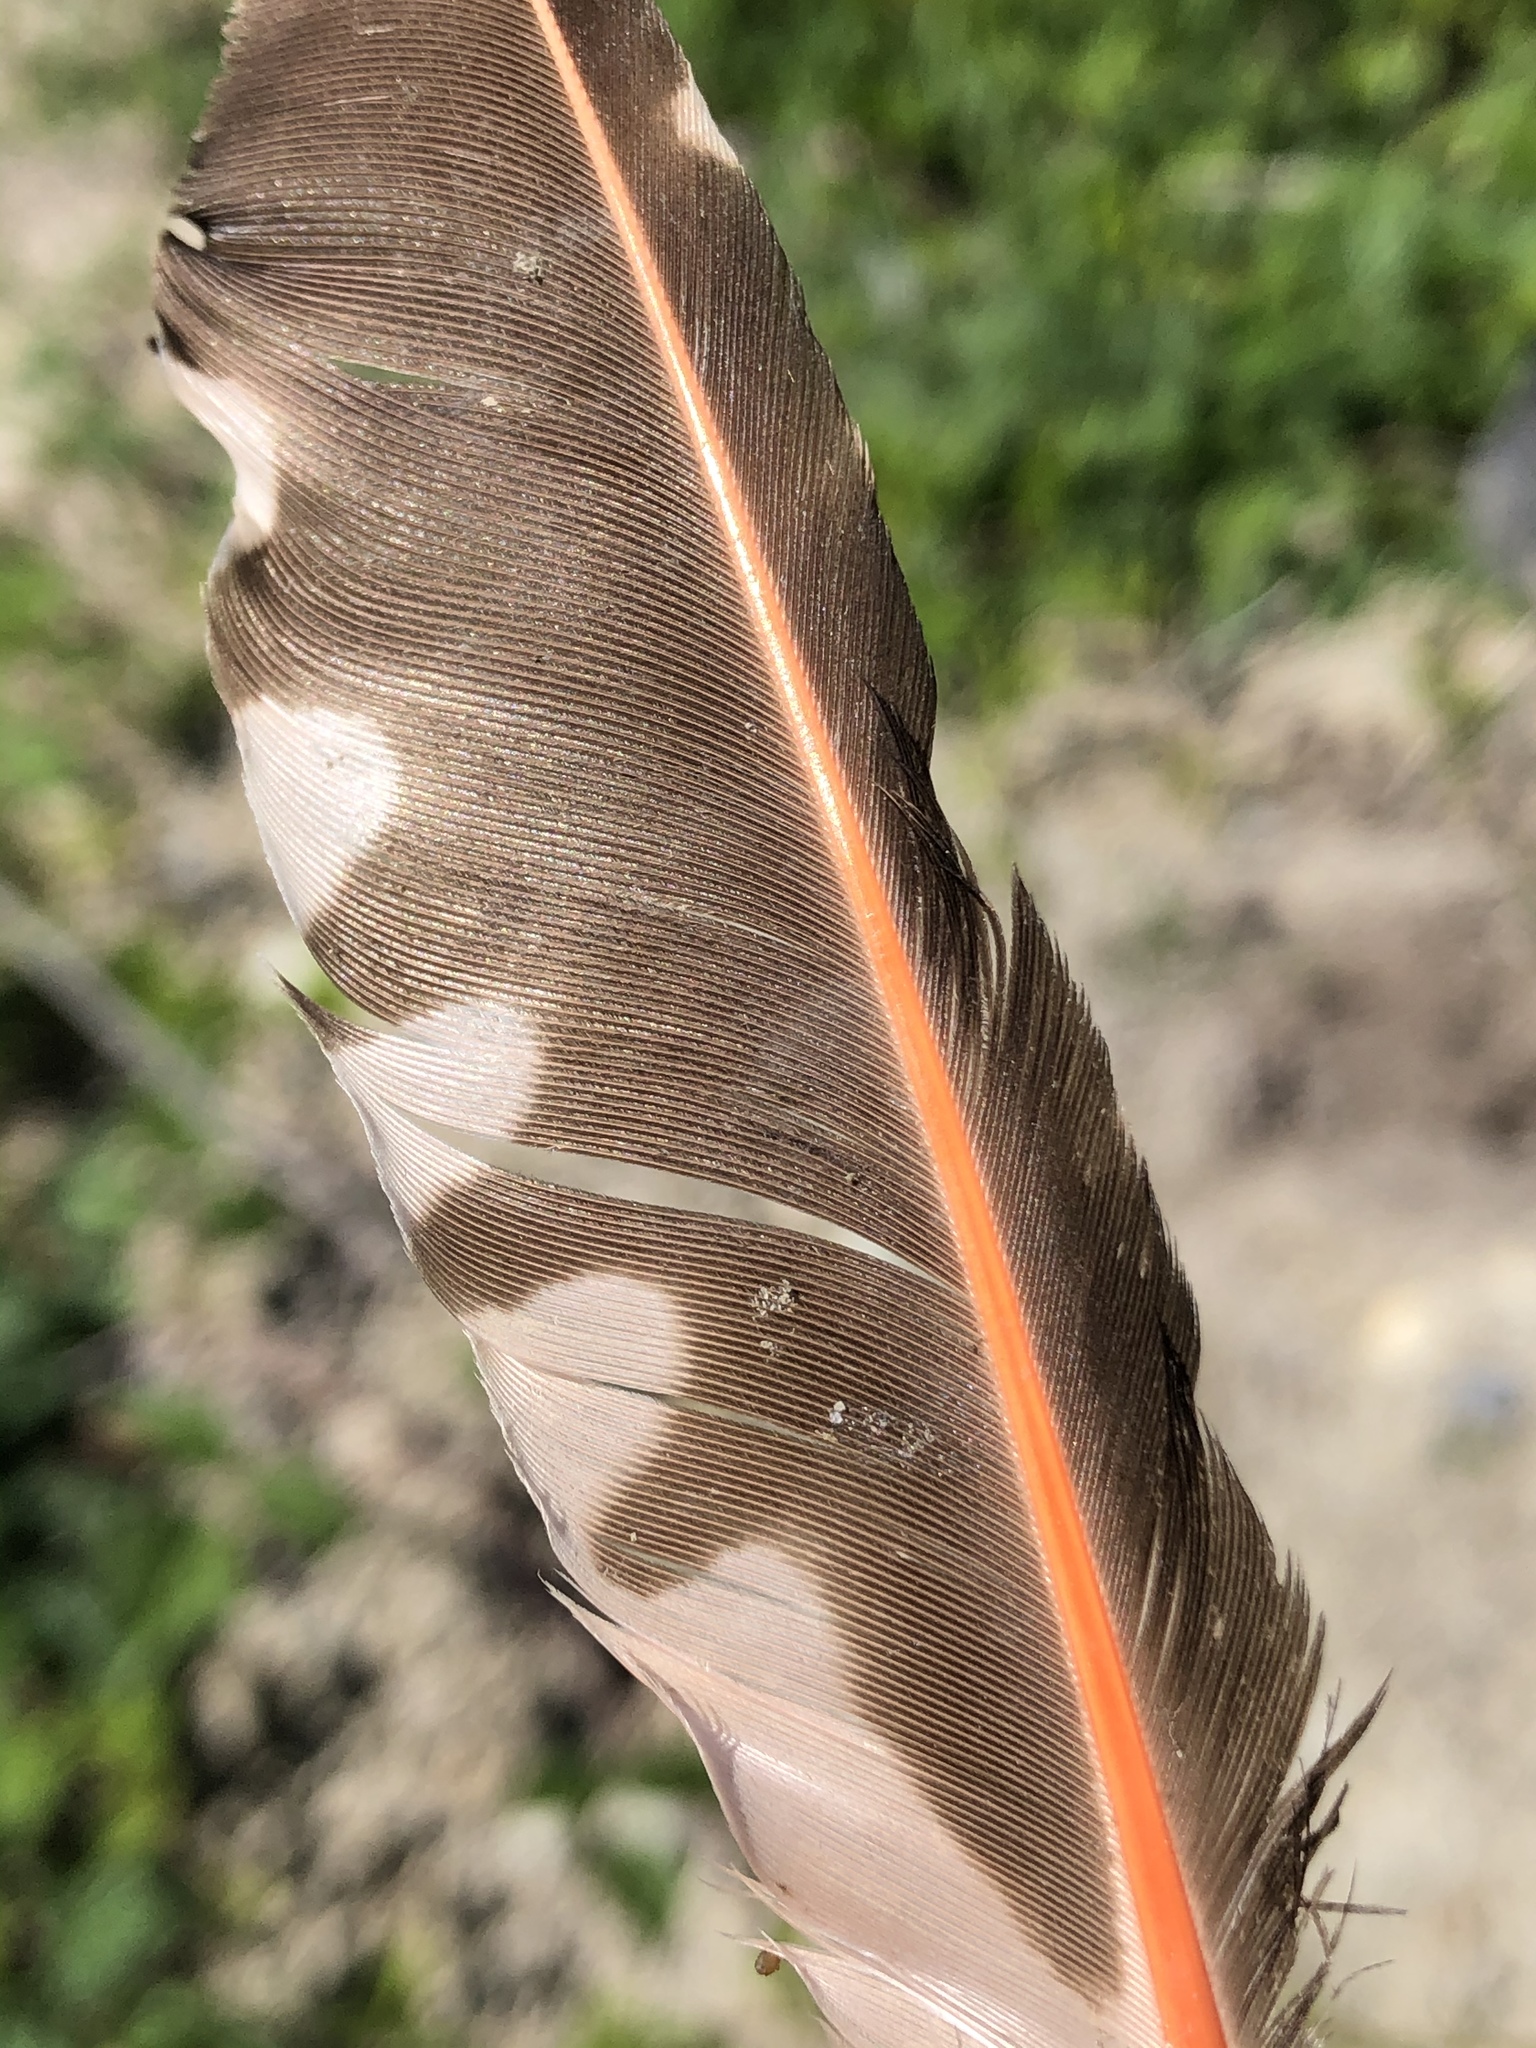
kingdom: Animalia
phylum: Chordata
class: Aves
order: Piciformes
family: Picidae
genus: Colaptes
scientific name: Colaptes auratus
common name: Northern flicker
